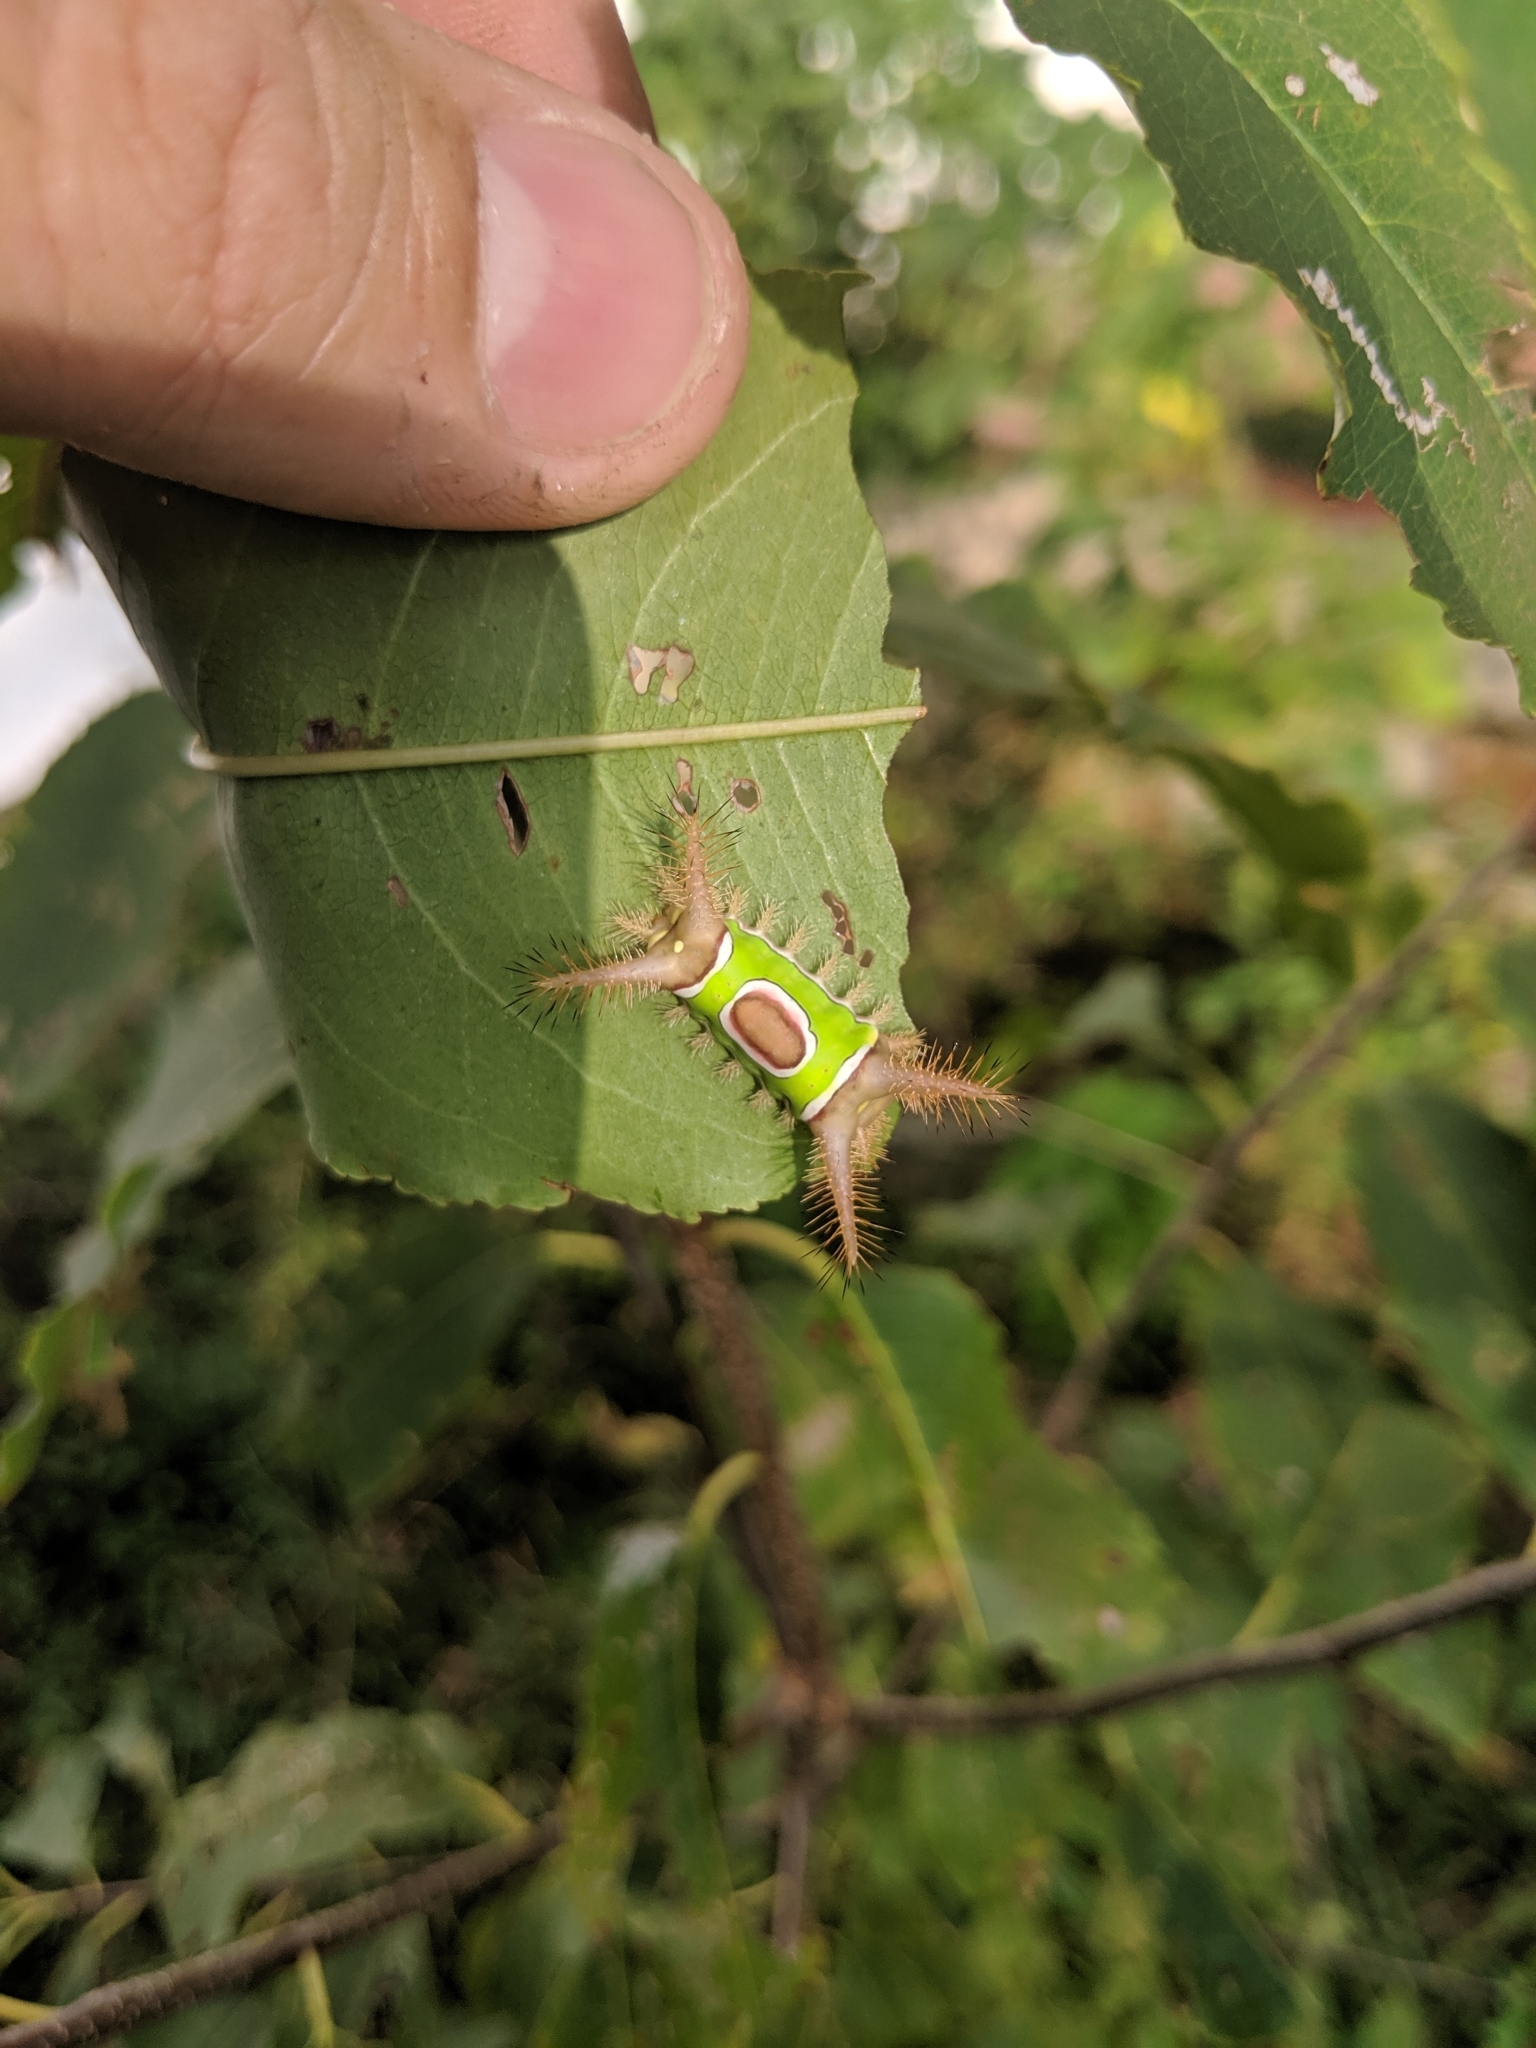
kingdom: Animalia
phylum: Arthropoda
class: Insecta
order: Lepidoptera
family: Limacodidae
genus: Acharia
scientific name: Acharia stimulea
